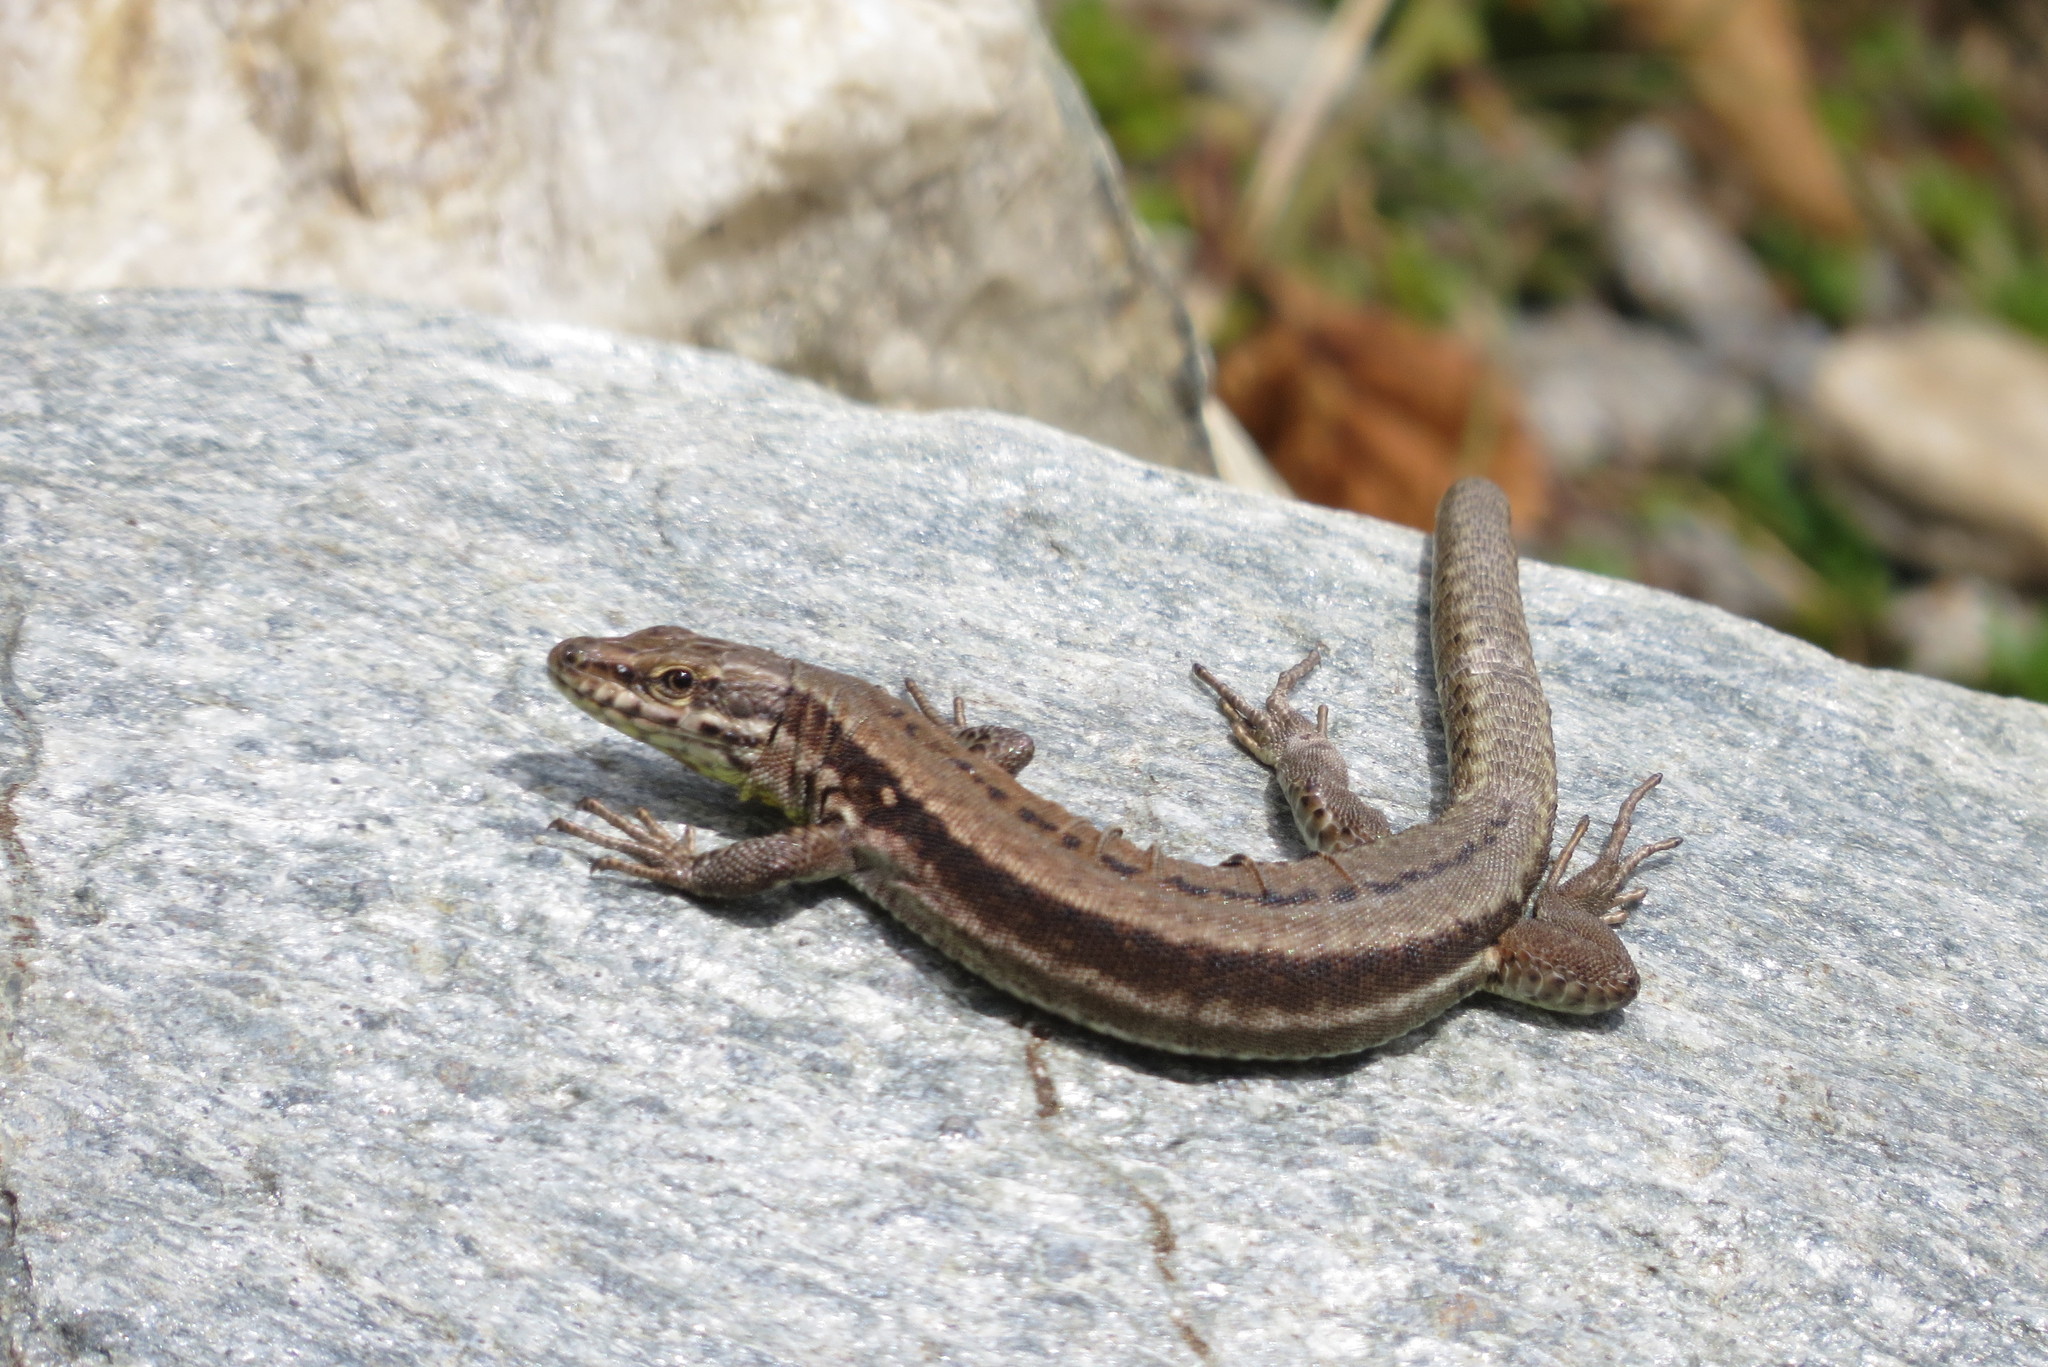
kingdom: Animalia
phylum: Chordata
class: Squamata
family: Lacertidae
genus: Podarcis
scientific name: Podarcis muralis
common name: Common wall lizard
